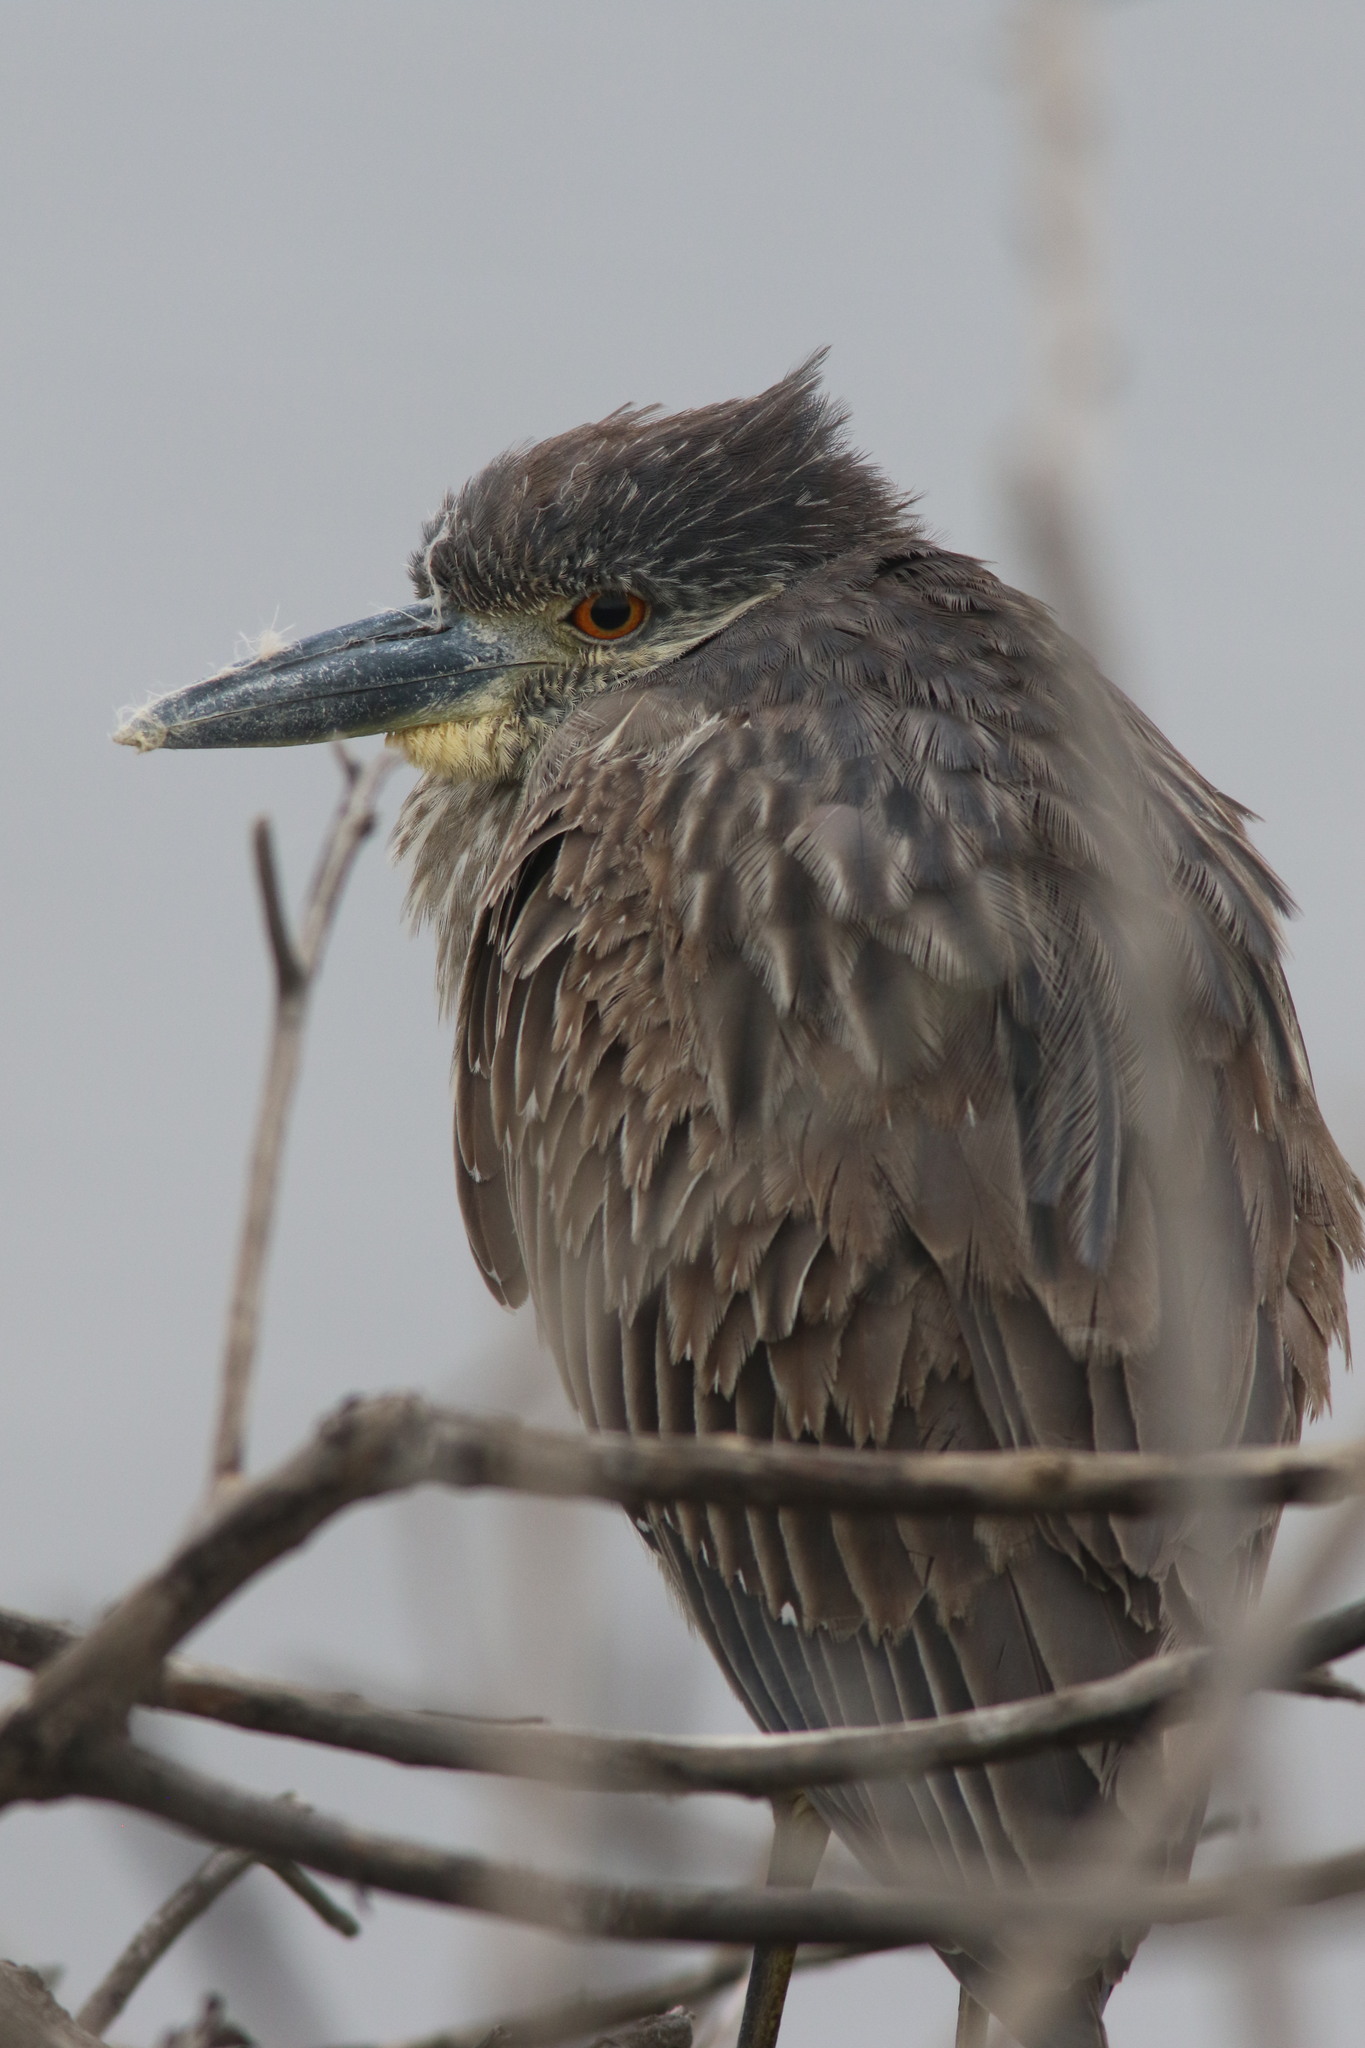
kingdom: Animalia
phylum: Chordata
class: Aves
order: Pelecaniformes
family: Ardeidae
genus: Nyctanassa
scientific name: Nyctanassa violacea
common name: Yellow-crowned night heron
